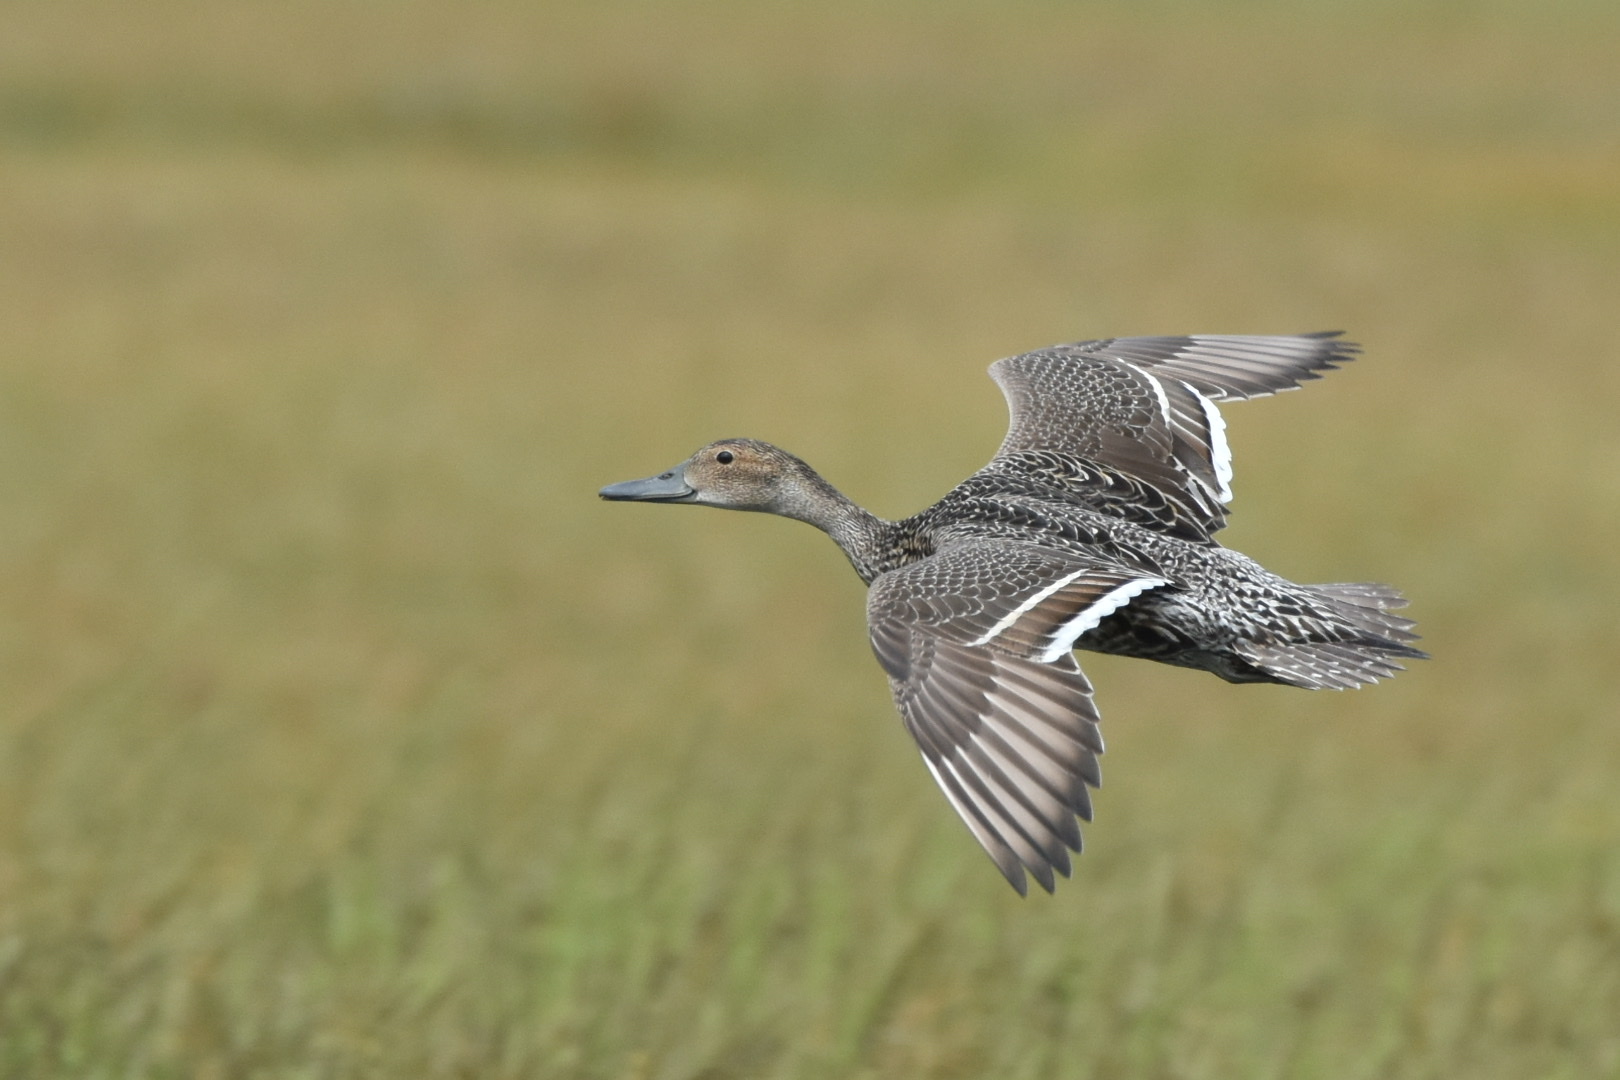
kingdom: Animalia
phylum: Chordata
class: Aves
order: Anseriformes
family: Anatidae
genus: Anas
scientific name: Anas acuta
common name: Northern pintail
